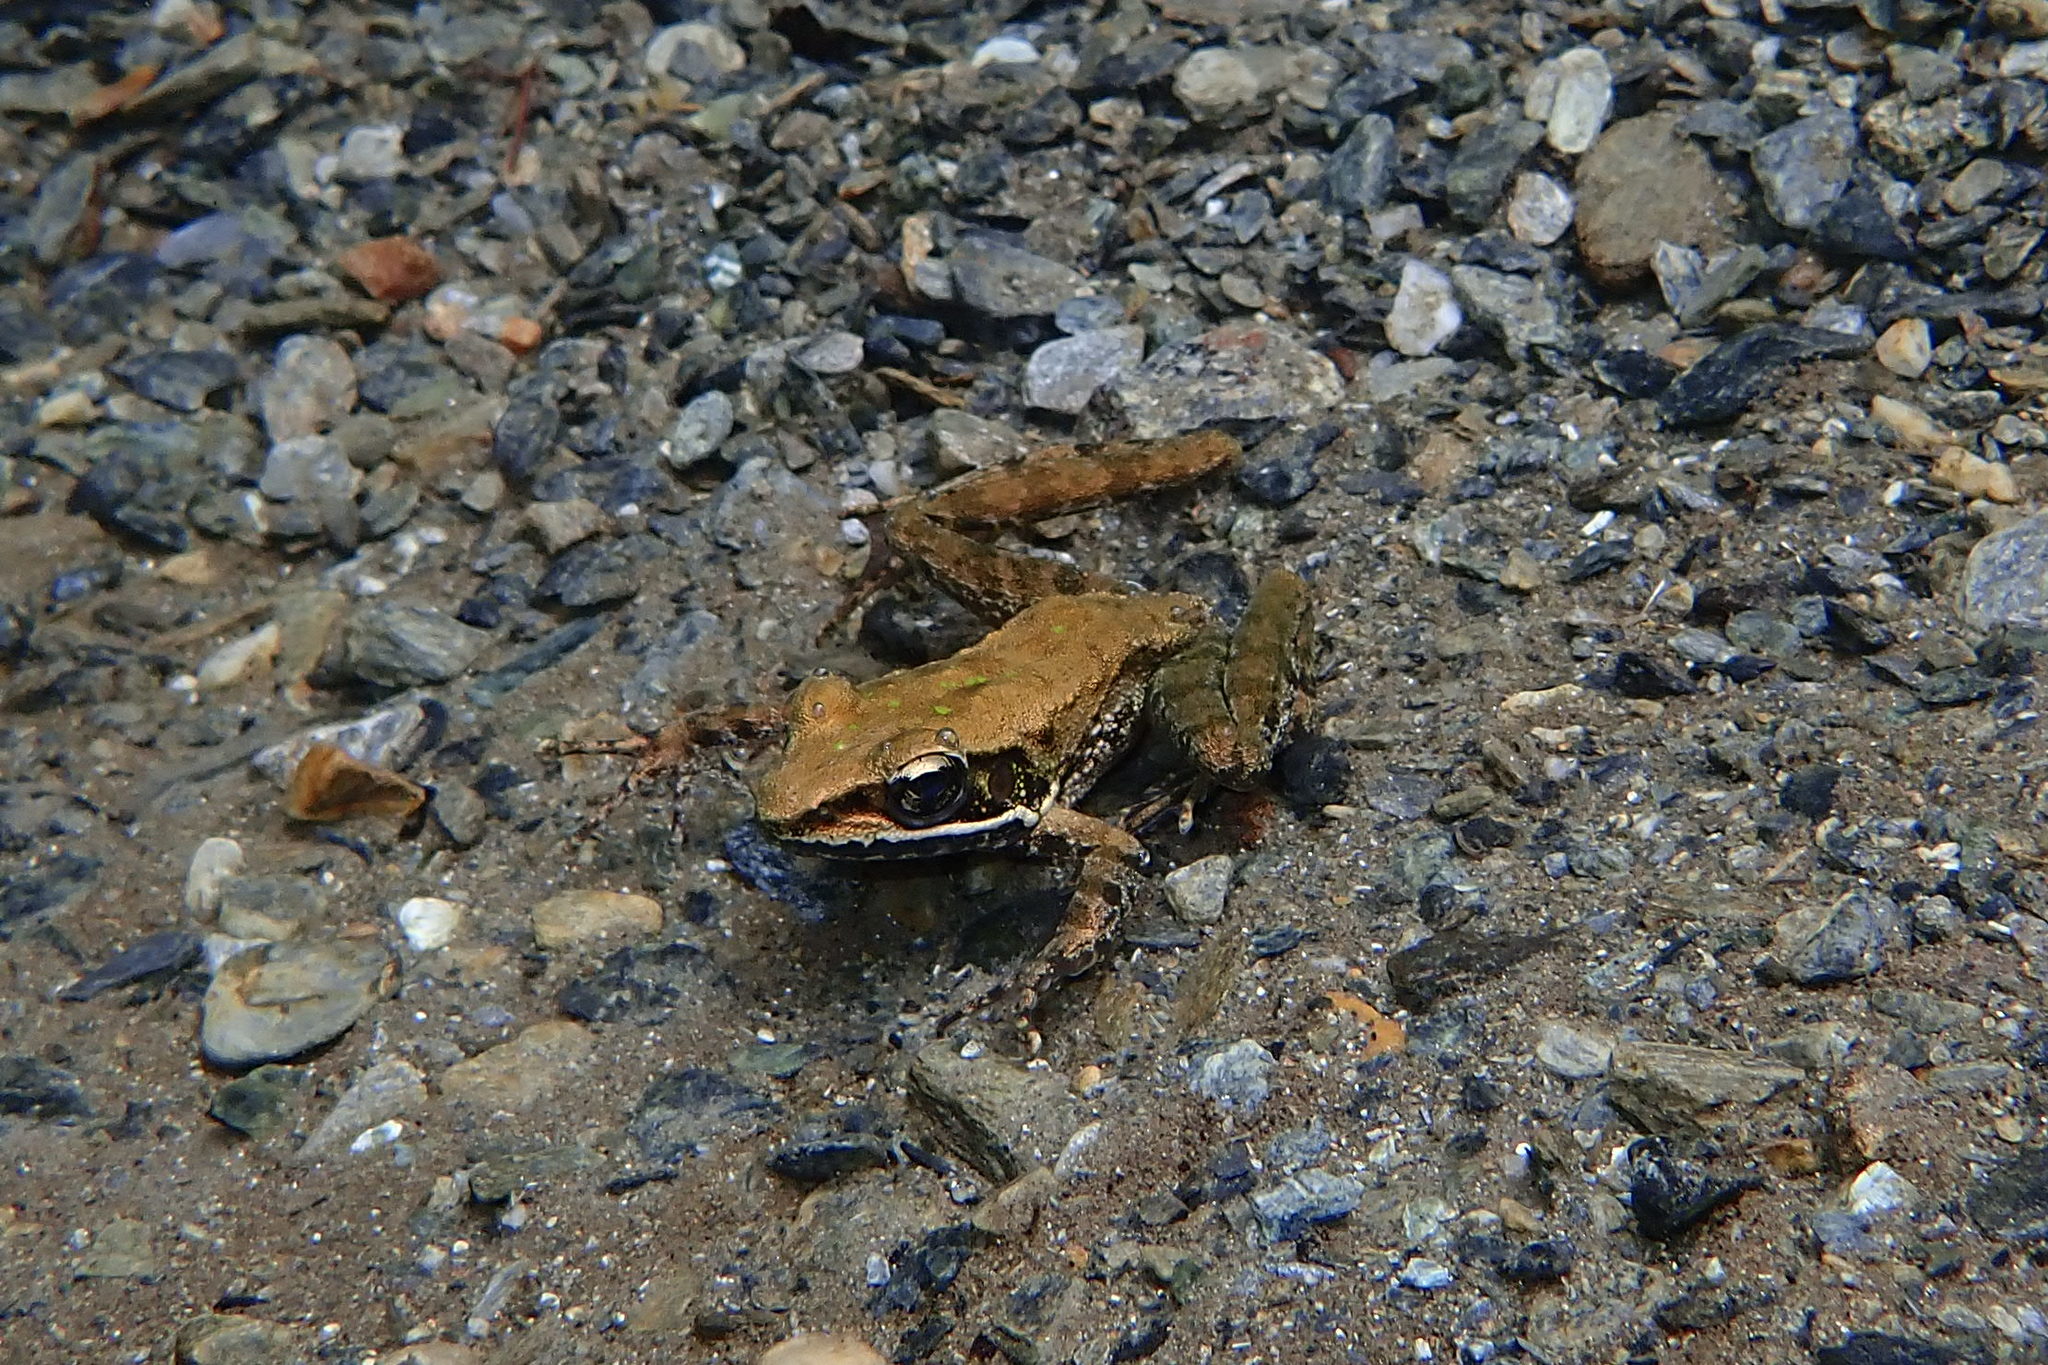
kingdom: Animalia
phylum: Chordata
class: Amphibia
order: Anura
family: Ranidae
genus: Odorrana
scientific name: Odorrana swinhoana
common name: Bangkimtsing frog
